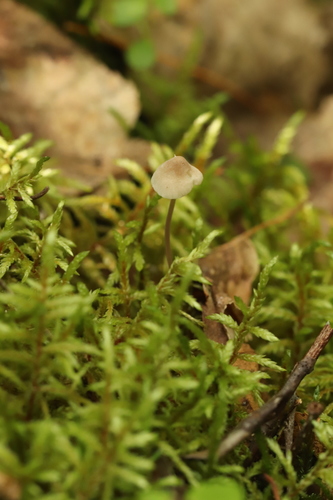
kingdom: Fungi
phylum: Basidiomycota
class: Agaricomycetes
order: Agaricales
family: Mycenaceae
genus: Mycena
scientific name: Mycena
